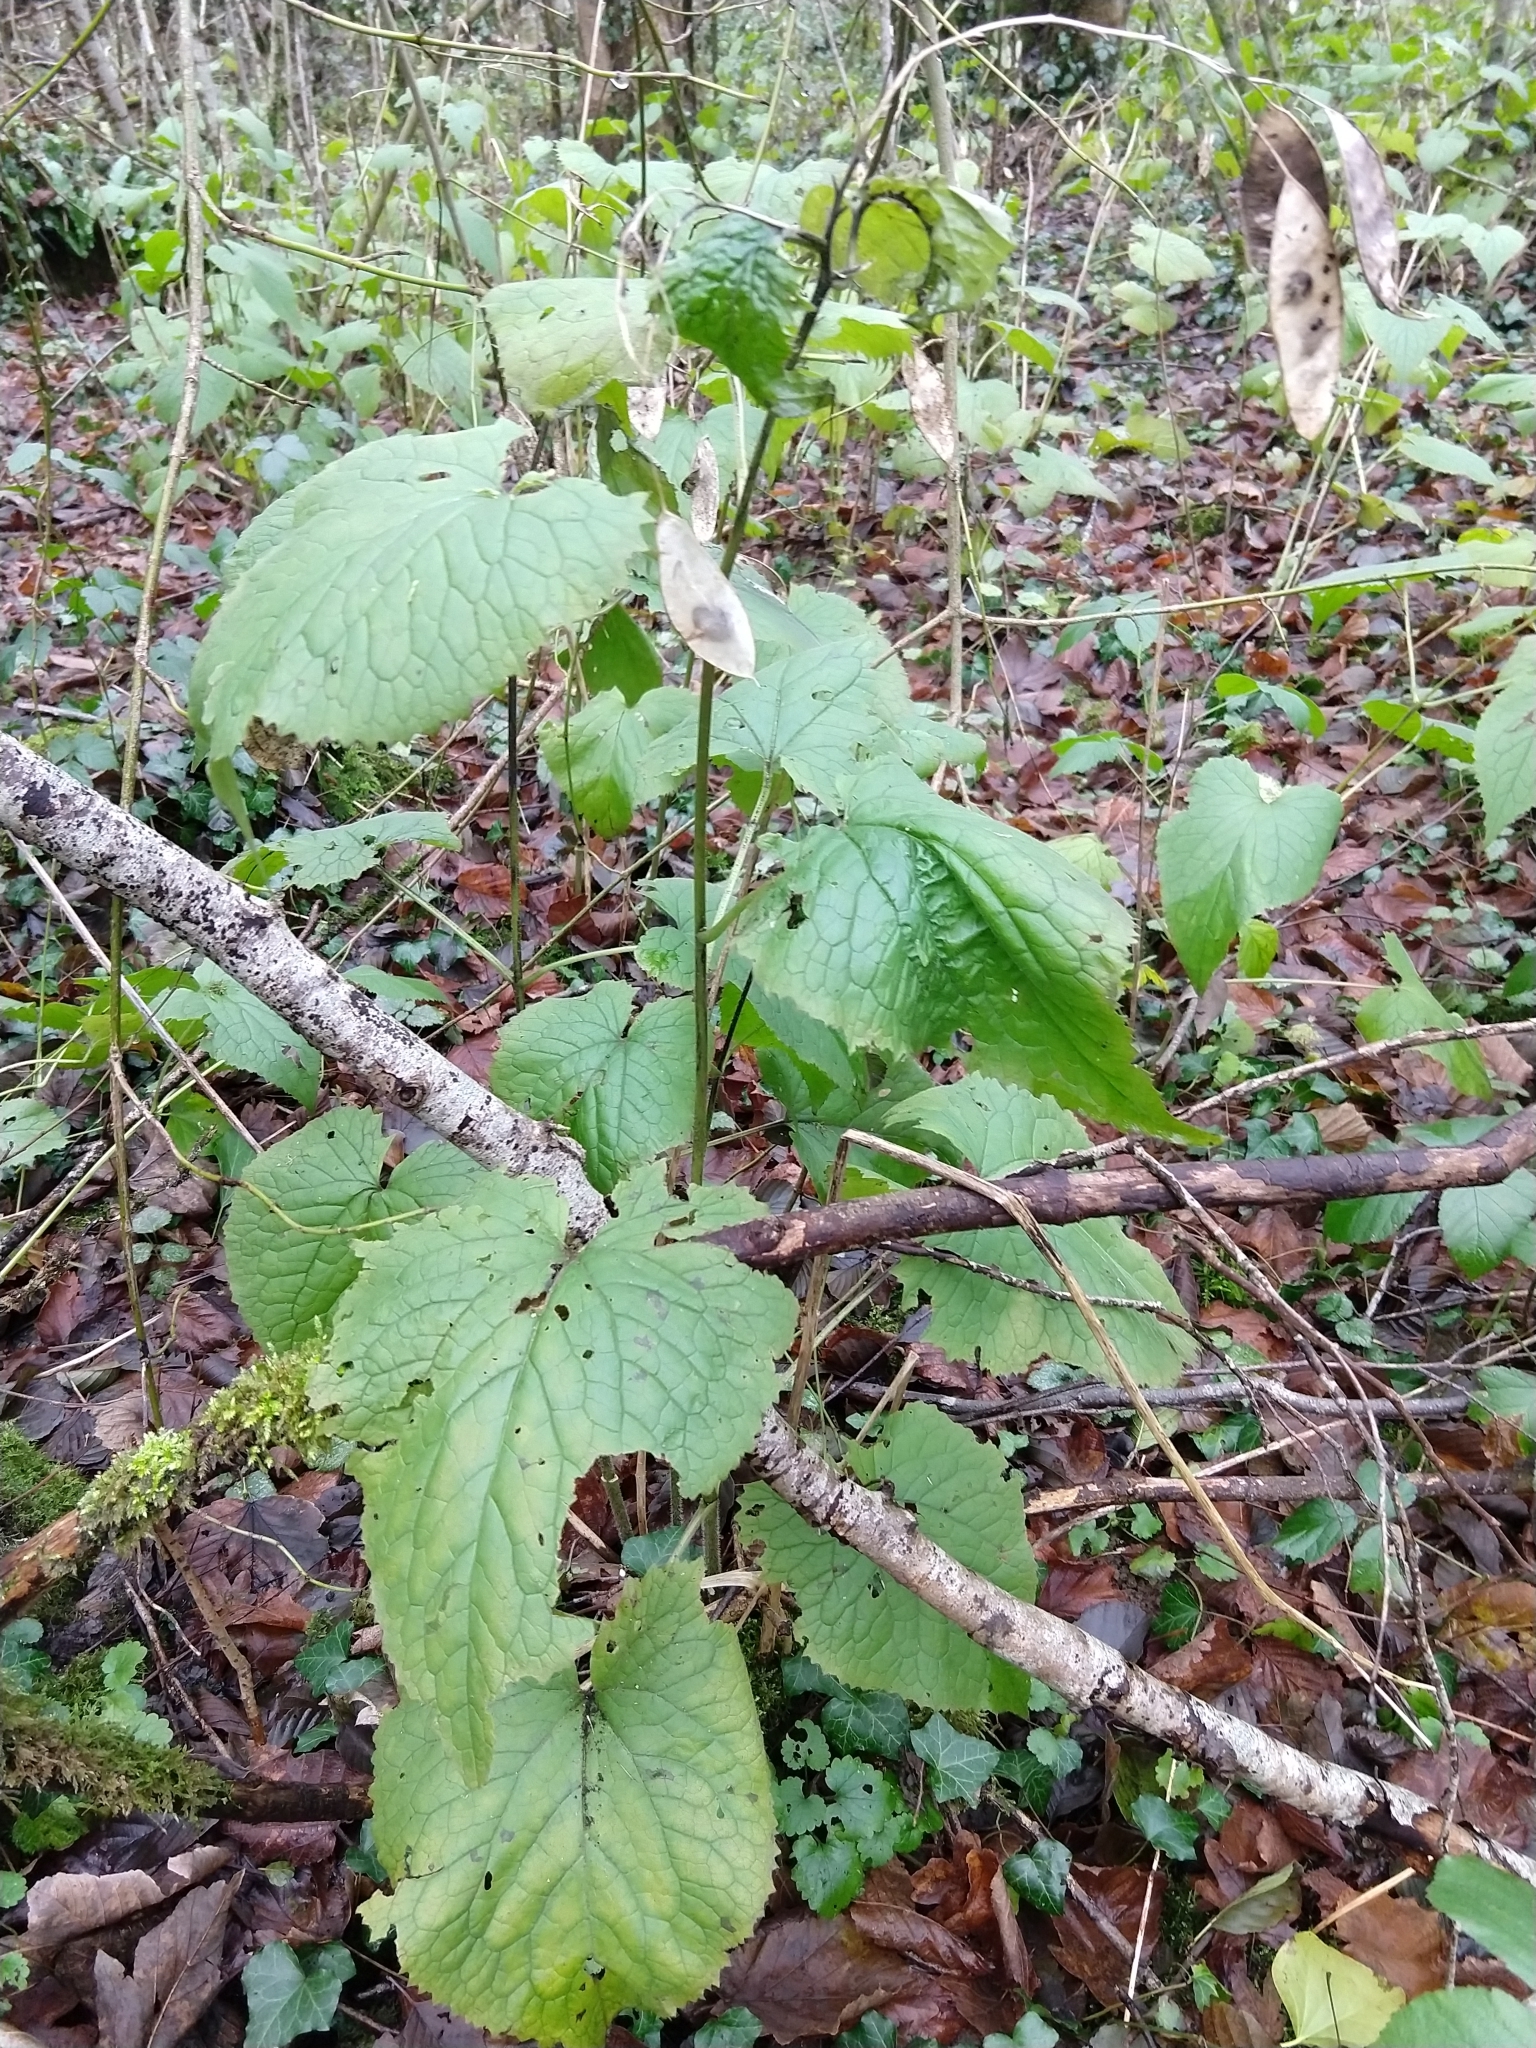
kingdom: Plantae
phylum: Tracheophyta
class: Magnoliopsida
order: Brassicales
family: Brassicaceae
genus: Lunaria
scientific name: Lunaria rediviva
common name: Perennial honesty
